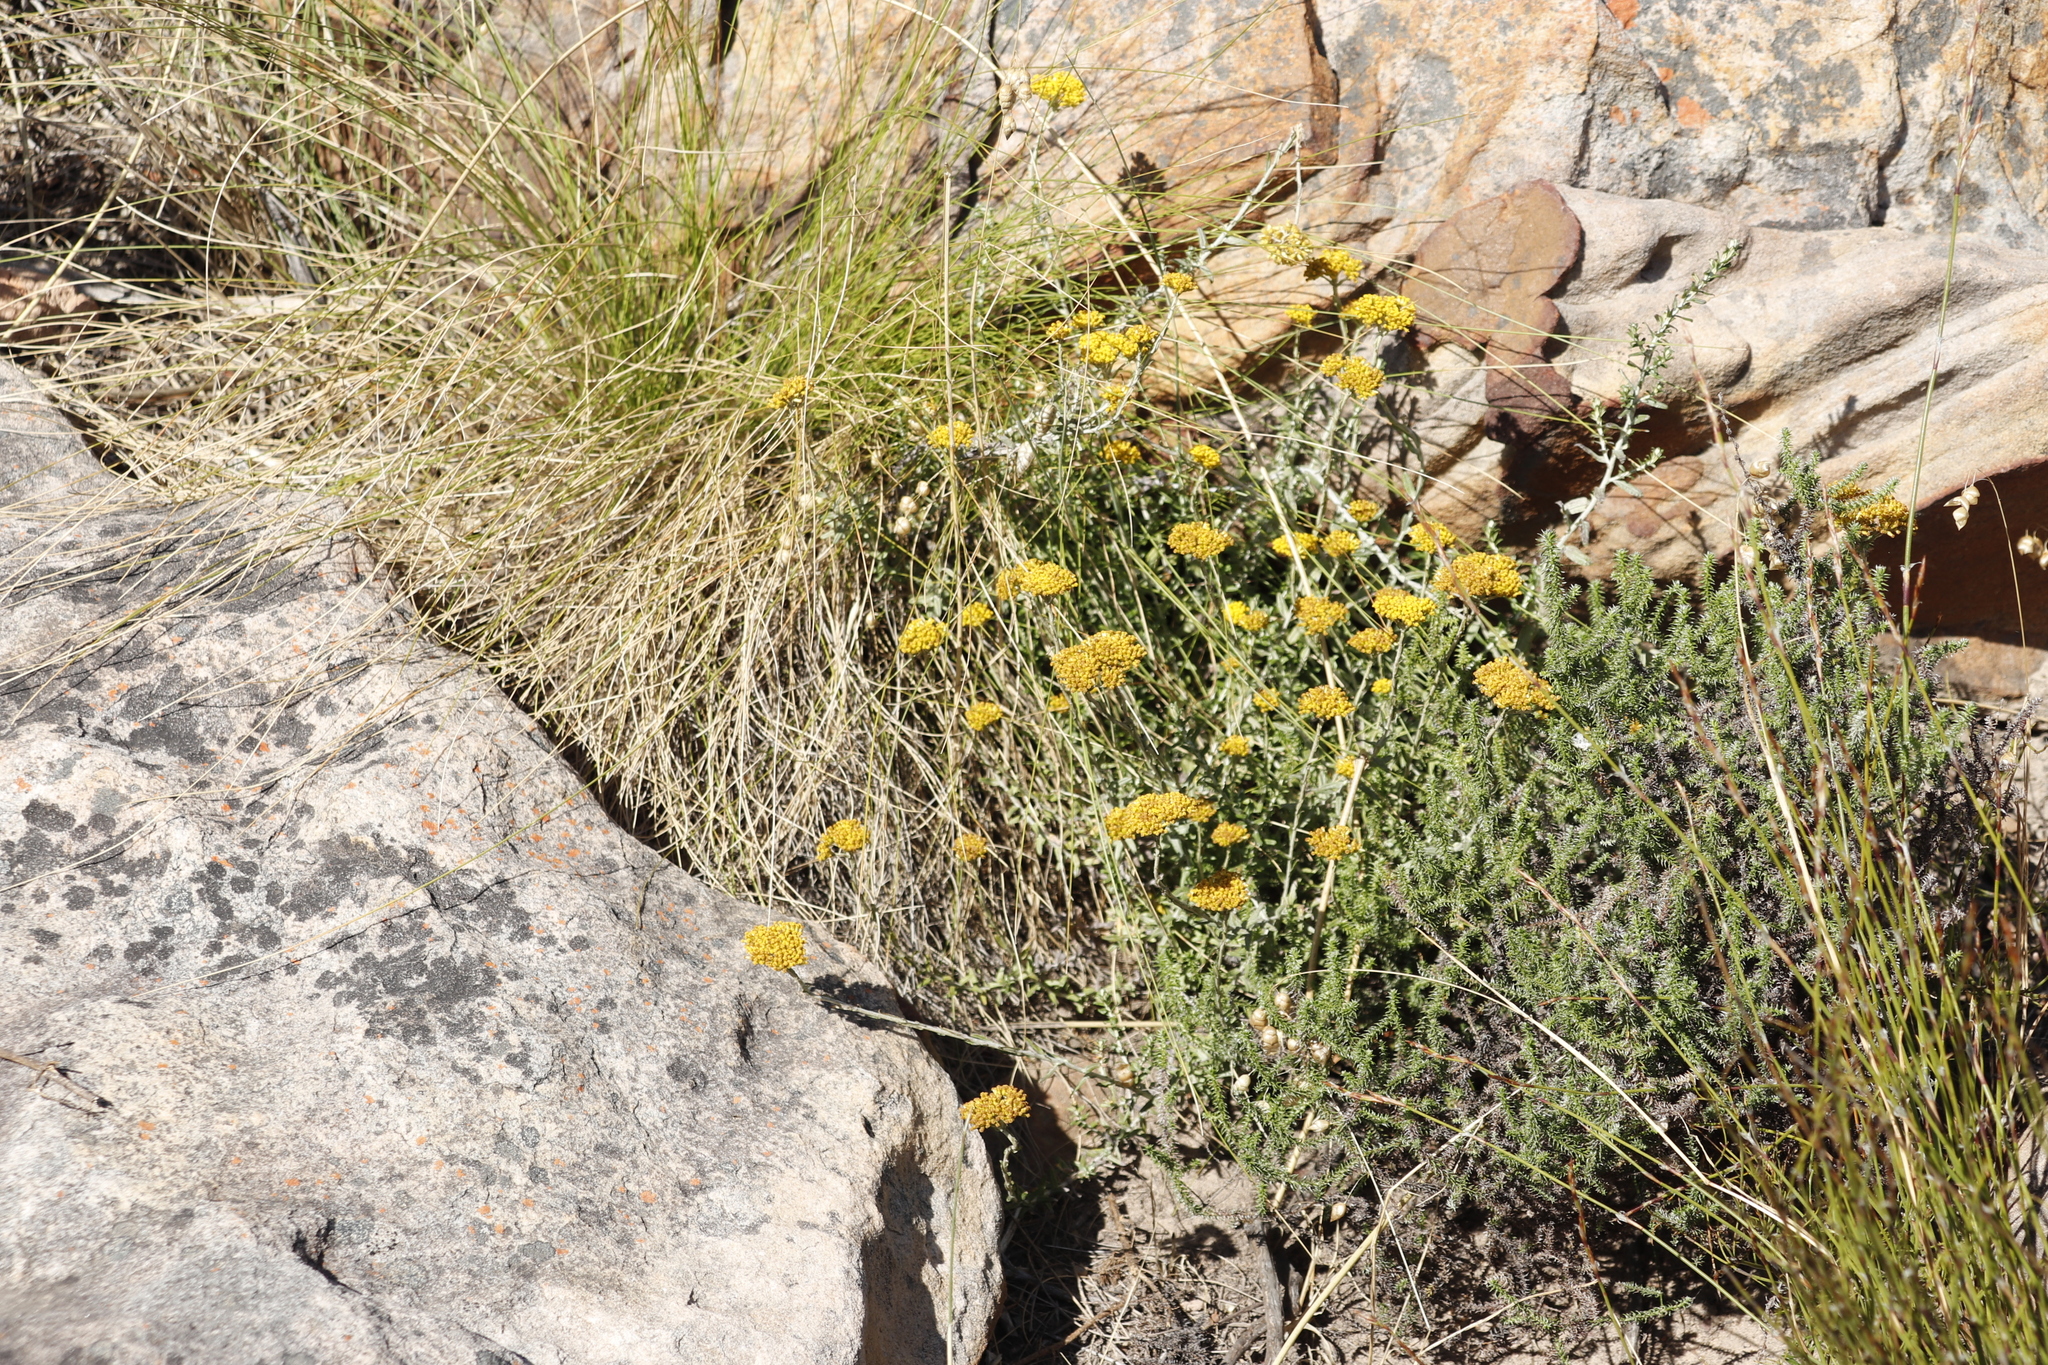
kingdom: Plantae
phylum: Tracheophyta
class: Magnoliopsida
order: Asterales
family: Asteraceae
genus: Helichrysum
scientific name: Helichrysum cymosum
